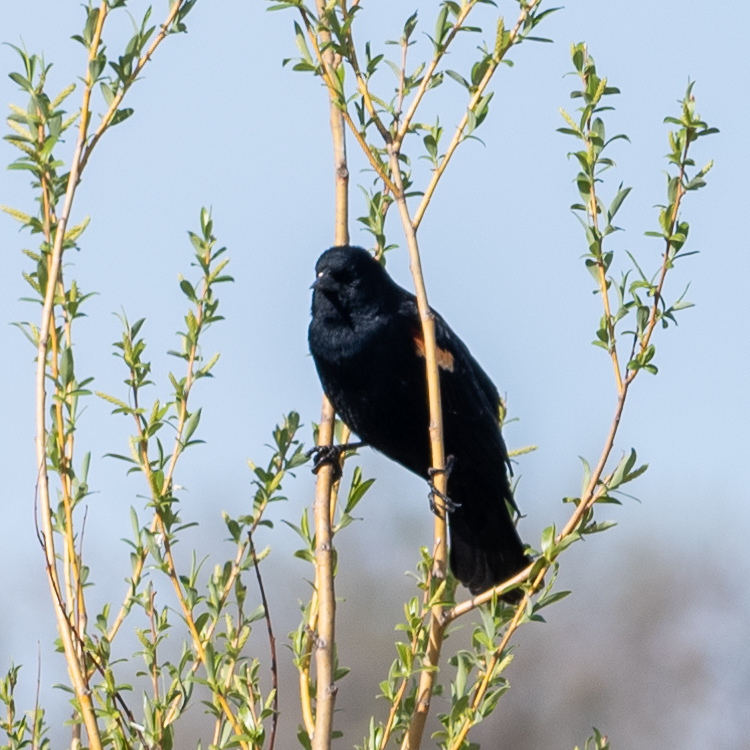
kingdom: Animalia
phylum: Chordata
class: Aves
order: Passeriformes
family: Icteridae
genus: Agelaius
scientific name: Agelaius phoeniceus
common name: Red-winged blackbird
